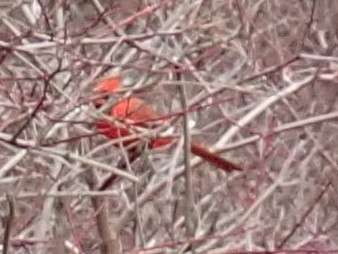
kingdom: Animalia
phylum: Chordata
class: Aves
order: Passeriformes
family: Cardinalidae
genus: Cardinalis
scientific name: Cardinalis cardinalis
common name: Northern cardinal
